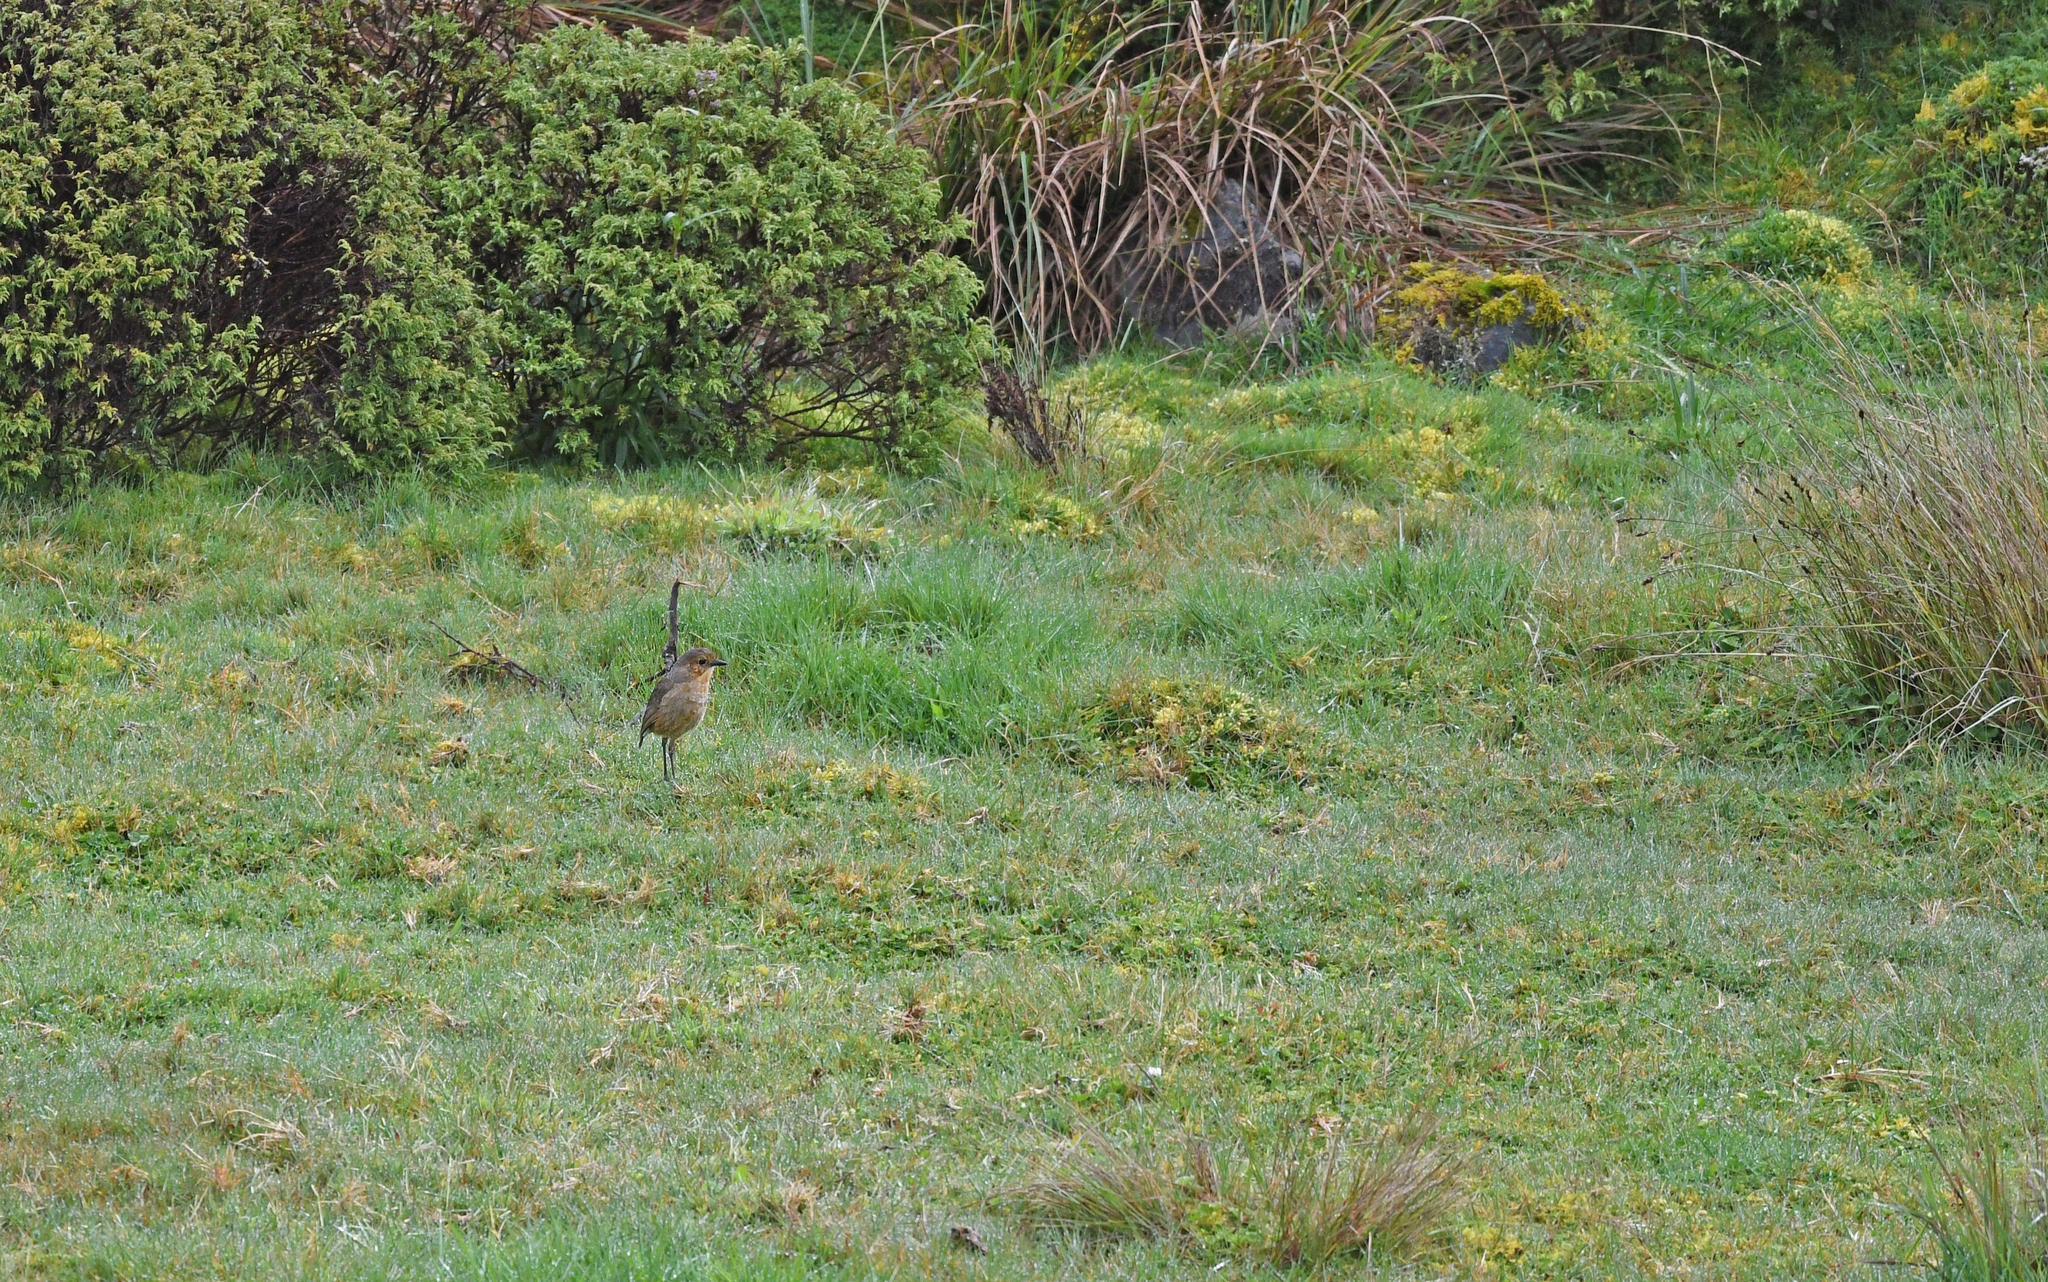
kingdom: Animalia
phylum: Chordata
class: Aves
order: Passeriformes
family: Grallariidae
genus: Grallaria
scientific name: Grallaria alticola
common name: Boyaca antpitta
